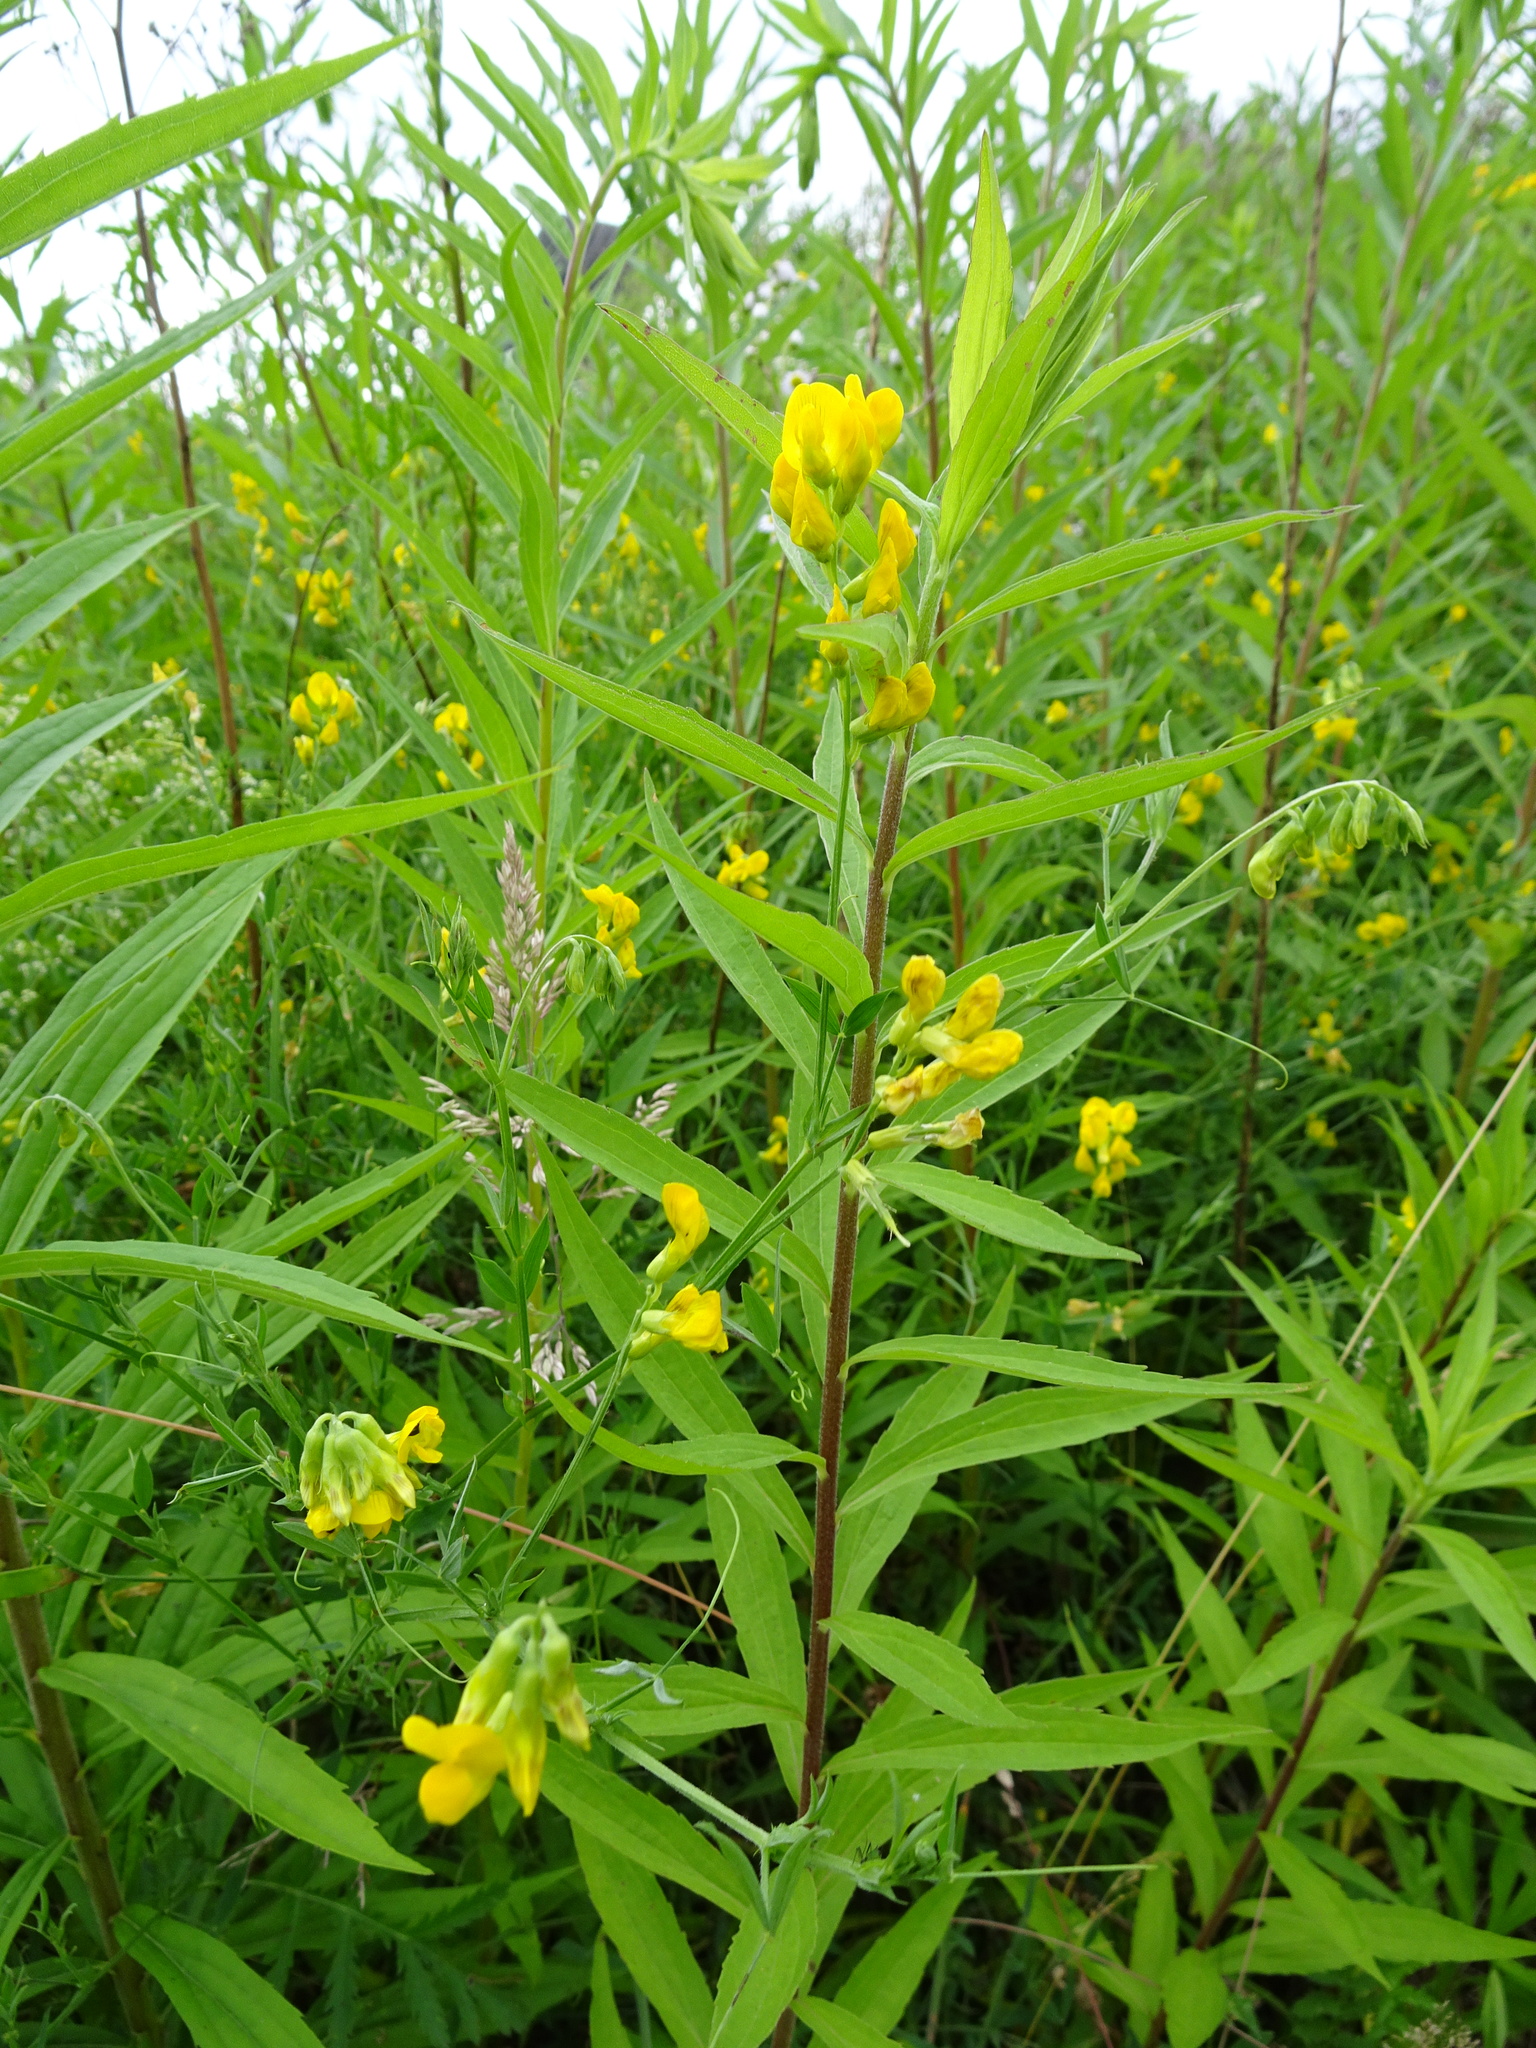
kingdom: Plantae
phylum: Tracheophyta
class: Magnoliopsida
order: Fabales
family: Fabaceae
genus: Lathyrus
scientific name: Lathyrus pratensis
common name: Meadow vetchling
